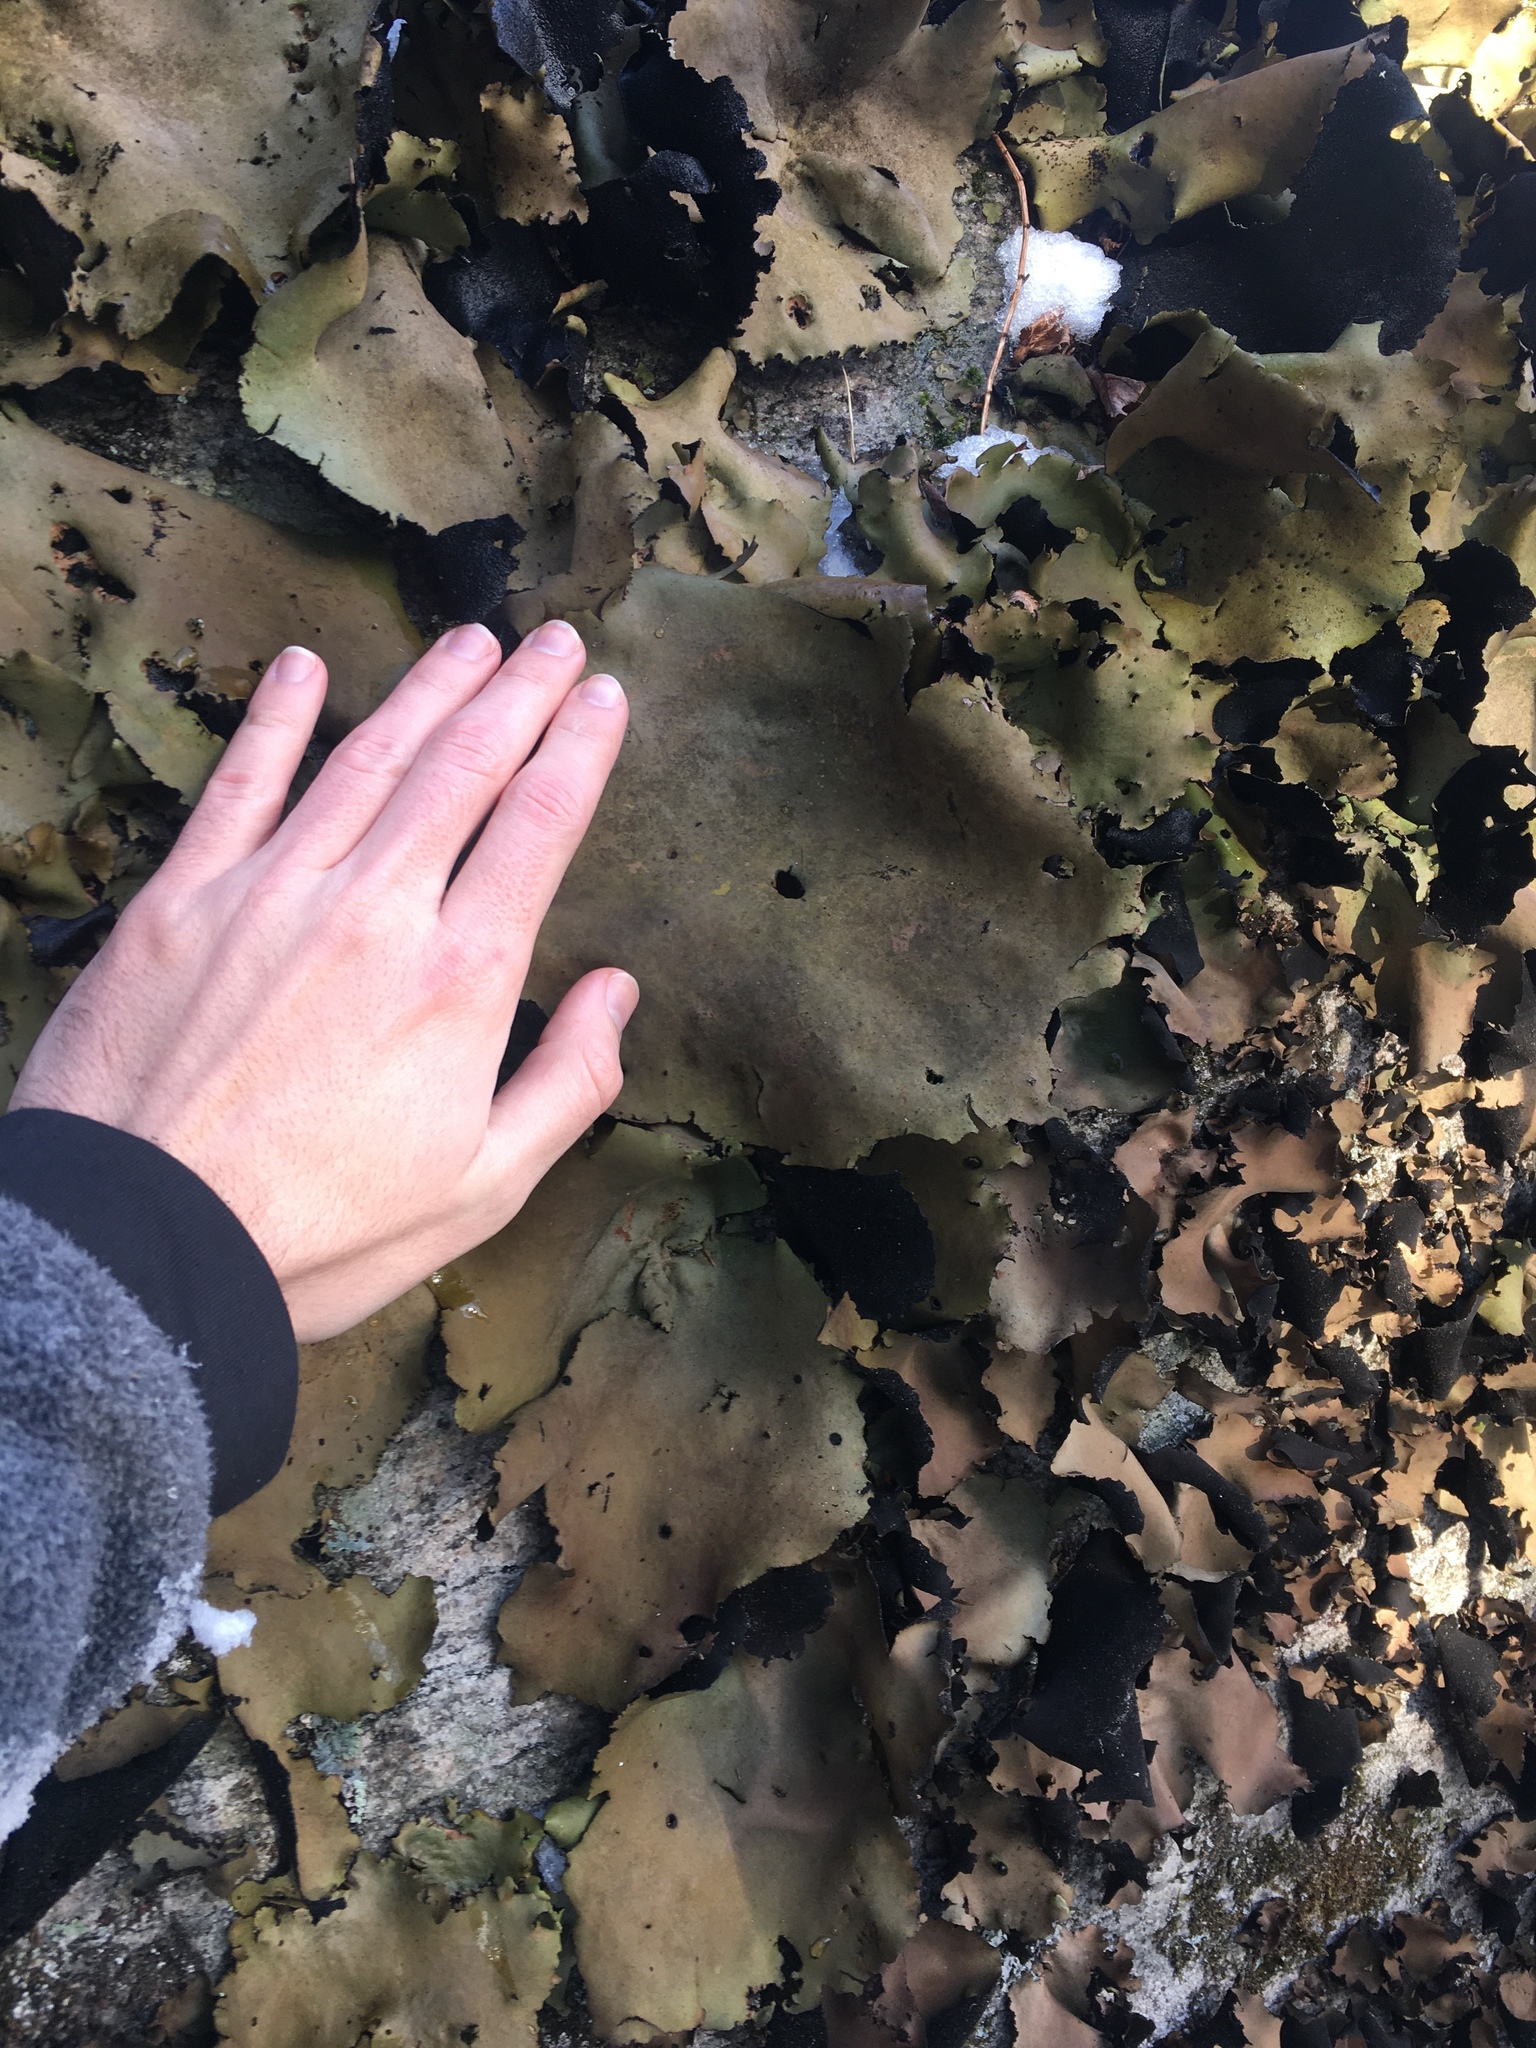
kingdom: Fungi
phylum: Ascomycota
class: Lecanoromycetes
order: Umbilicariales
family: Umbilicariaceae
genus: Umbilicaria
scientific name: Umbilicaria mammulata
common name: Smooth rock tripe
